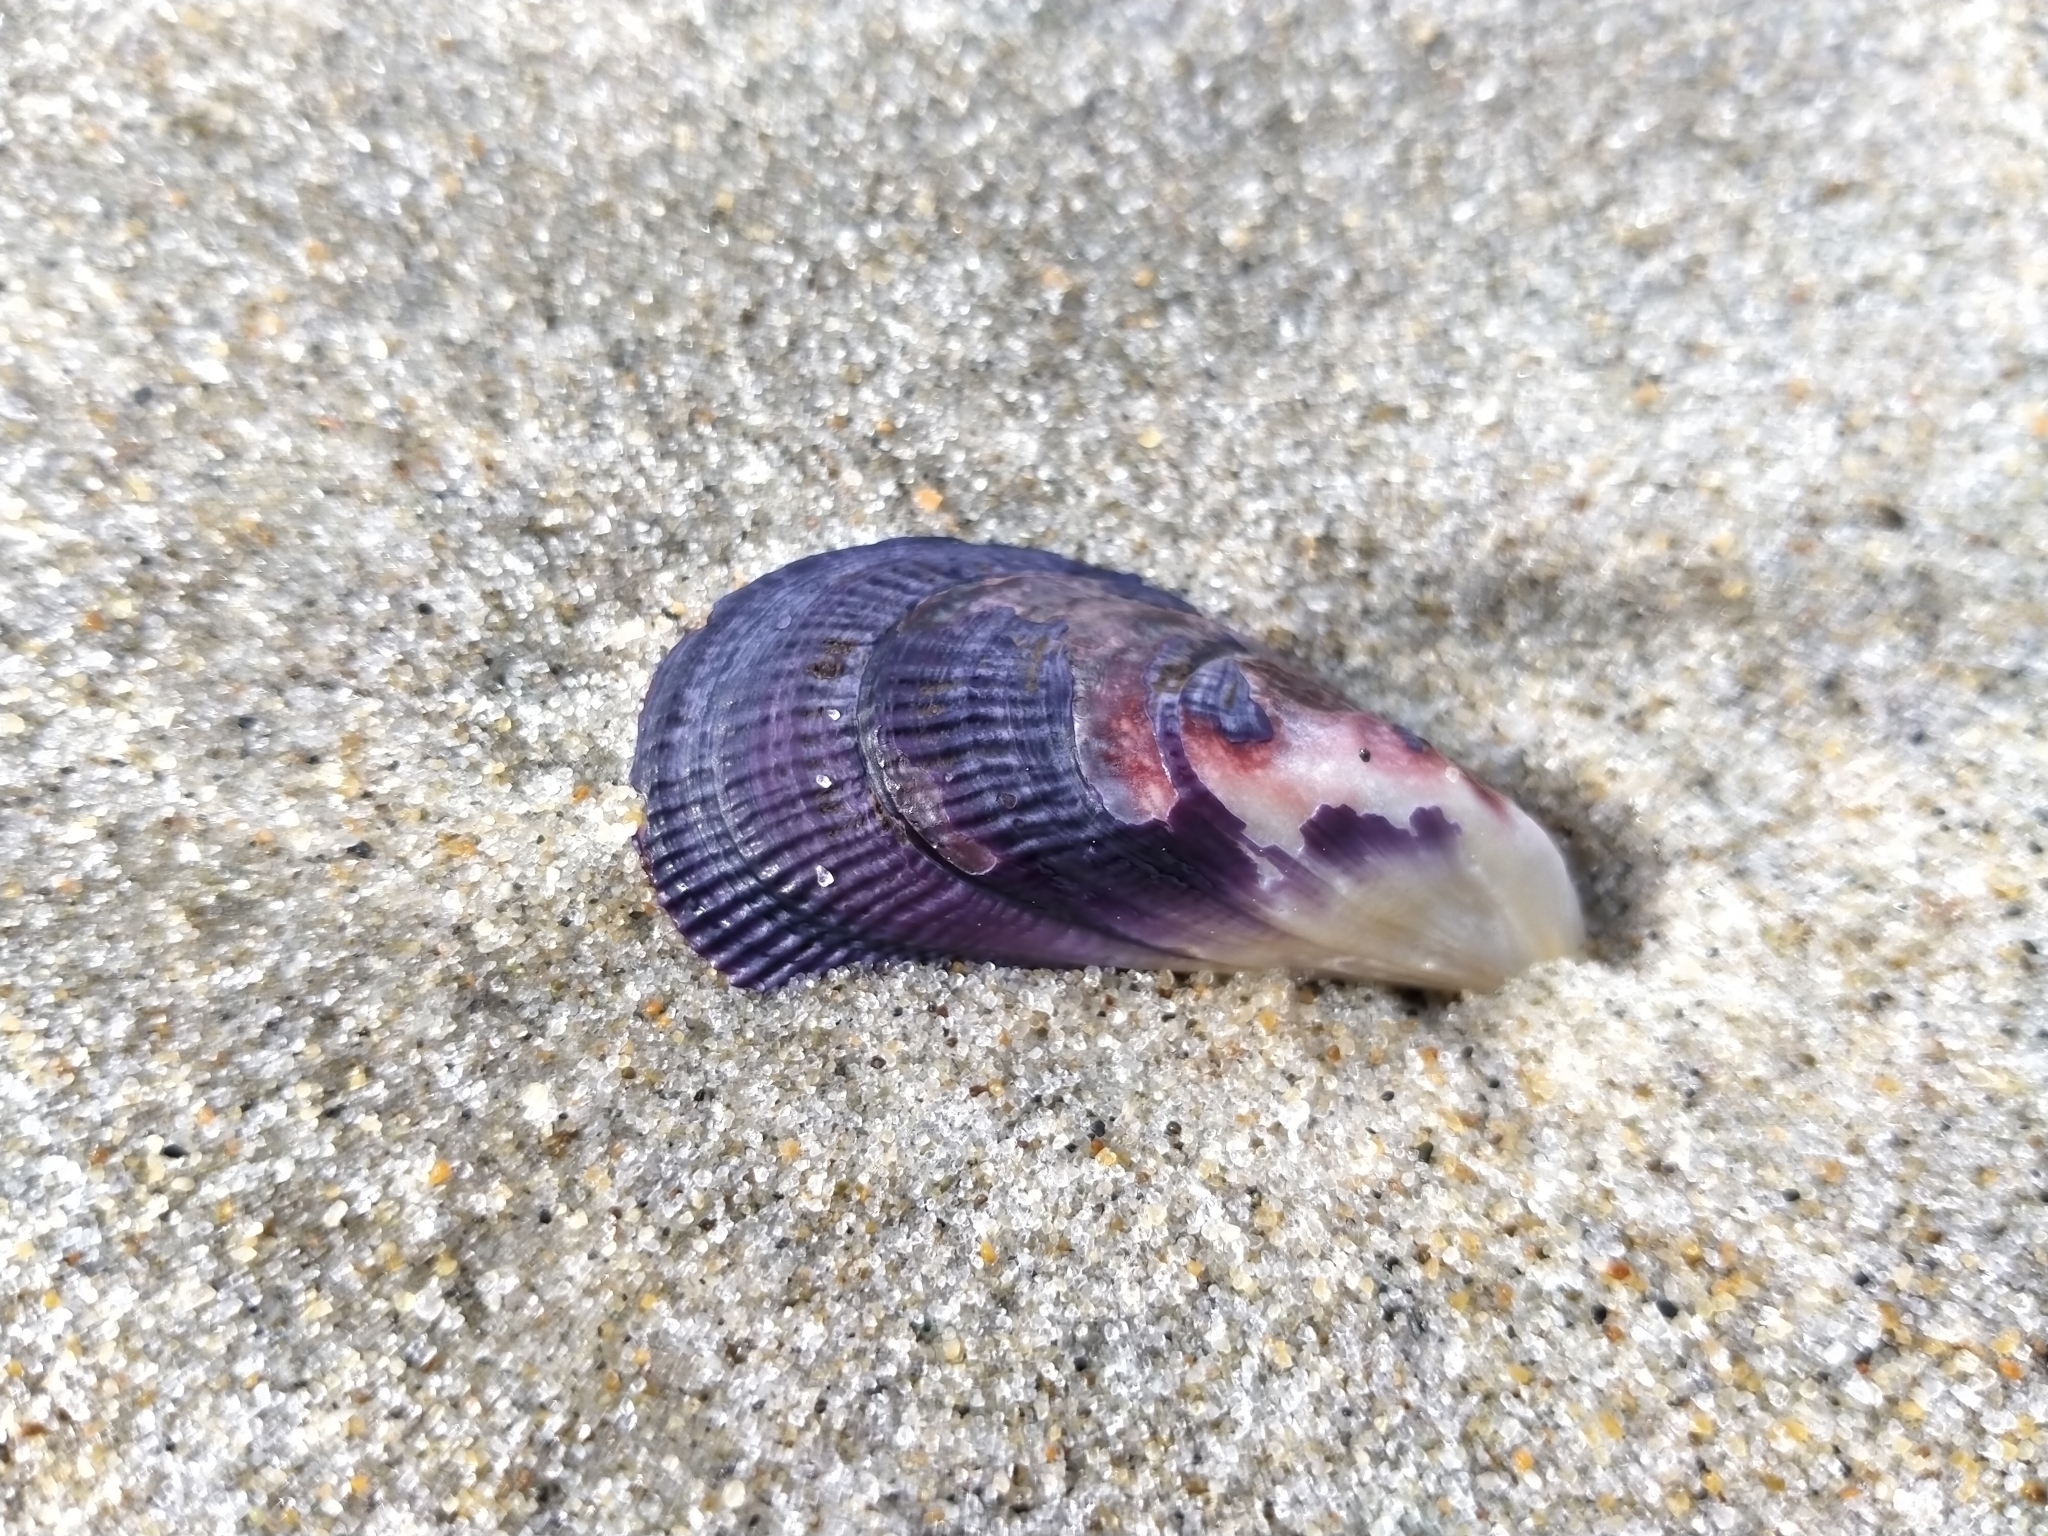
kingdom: Animalia
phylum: Mollusca
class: Bivalvia
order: Mytilida
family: Mytilidae
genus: Aulacomya
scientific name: Aulacomya maoriana
